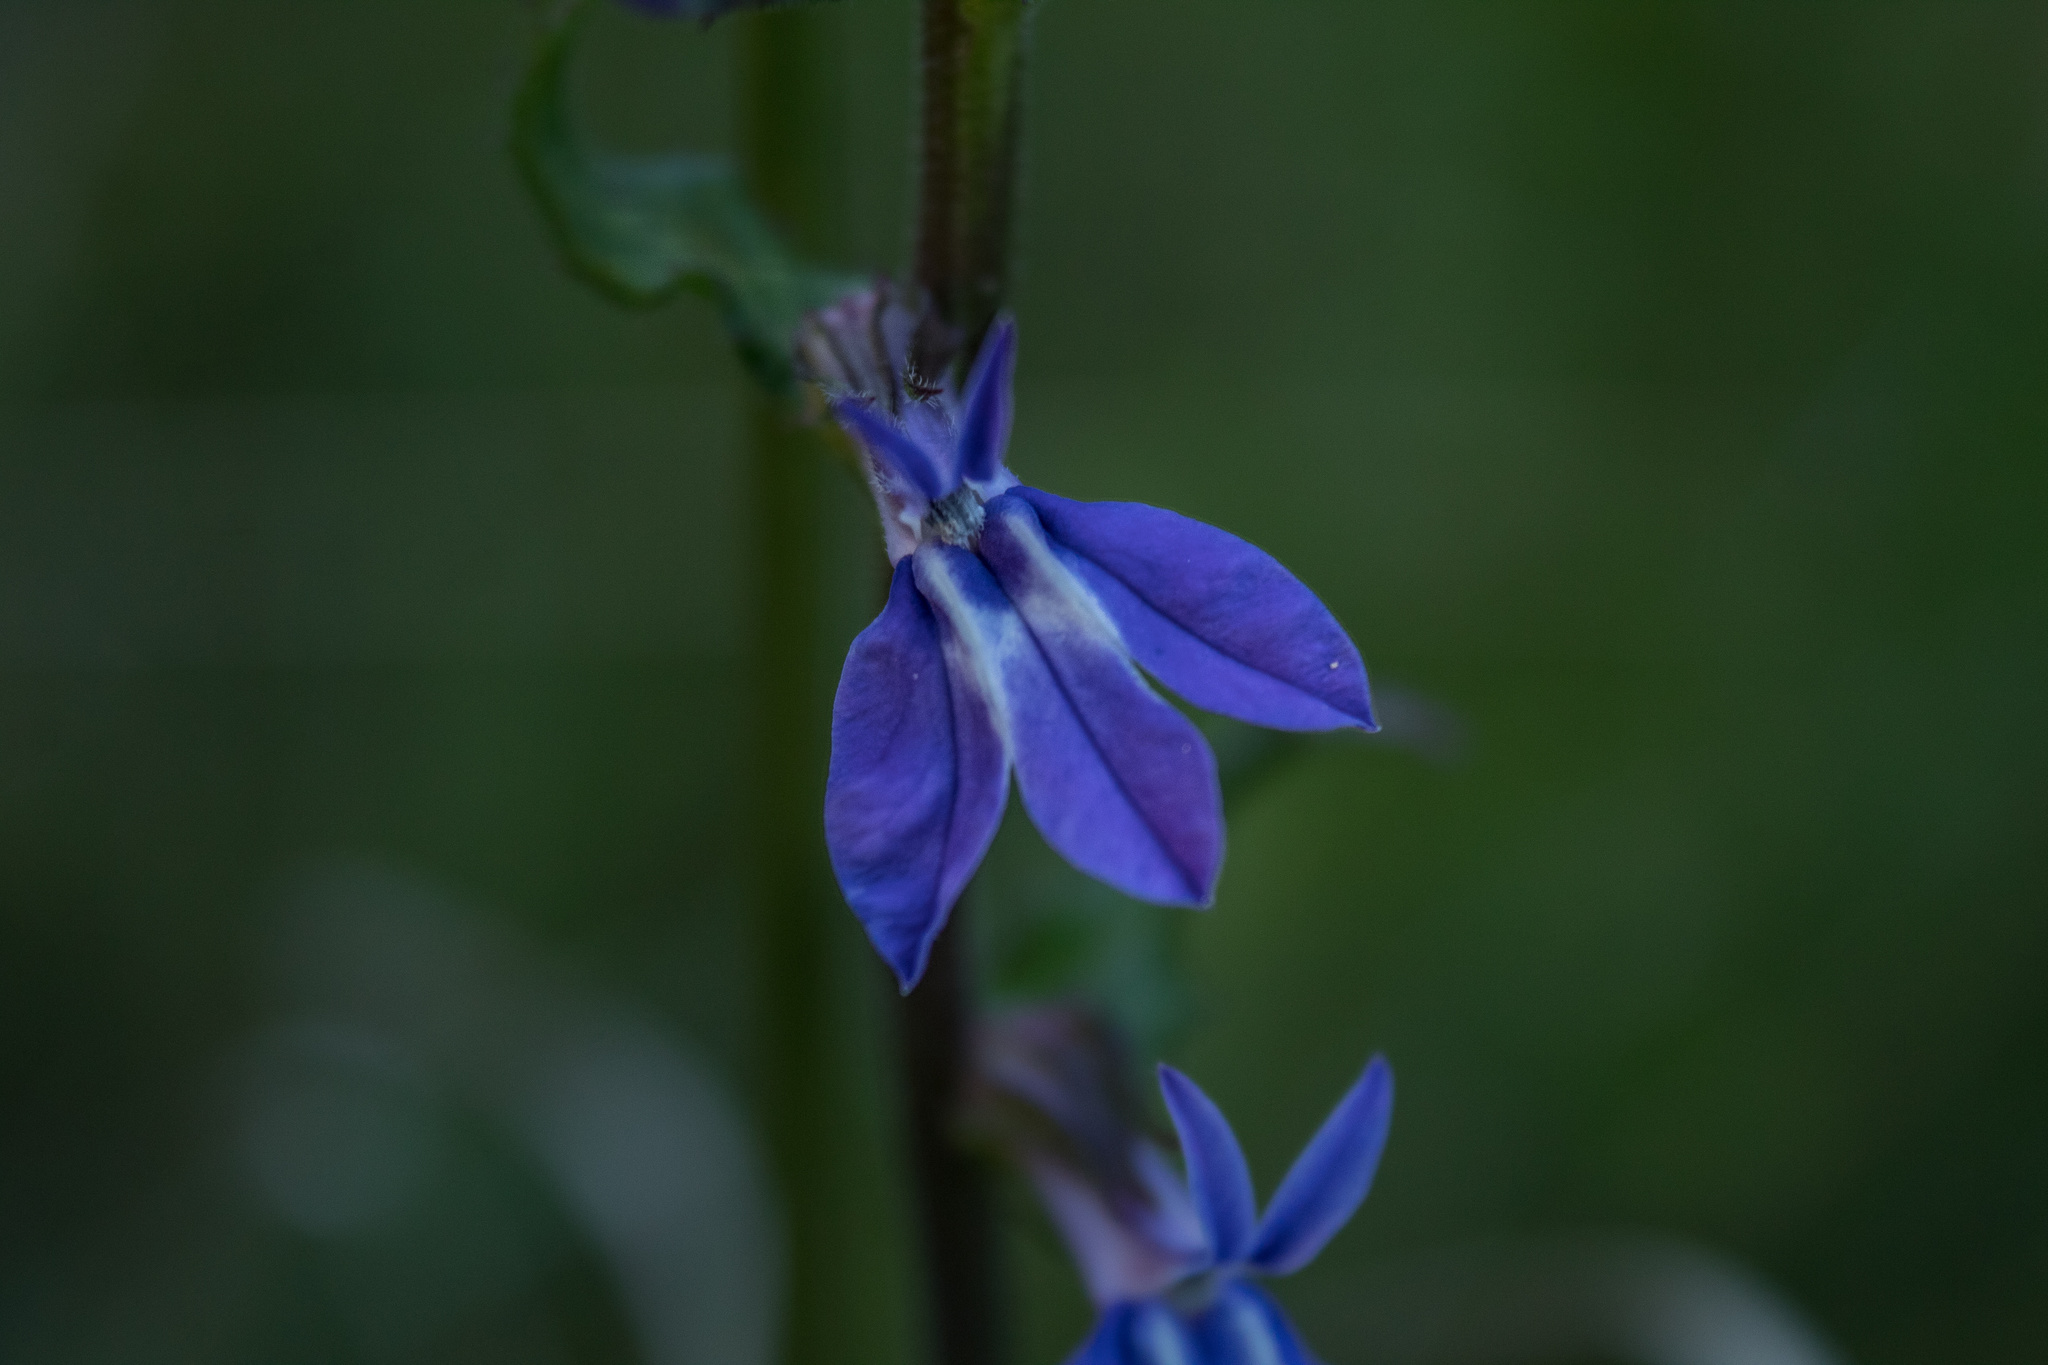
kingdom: Plantae
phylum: Tracheophyta
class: Magnoliopsida
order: Asterales
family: Campanulaceae
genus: Lobelia
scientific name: Lobelia puberula
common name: Purple dewdrop
